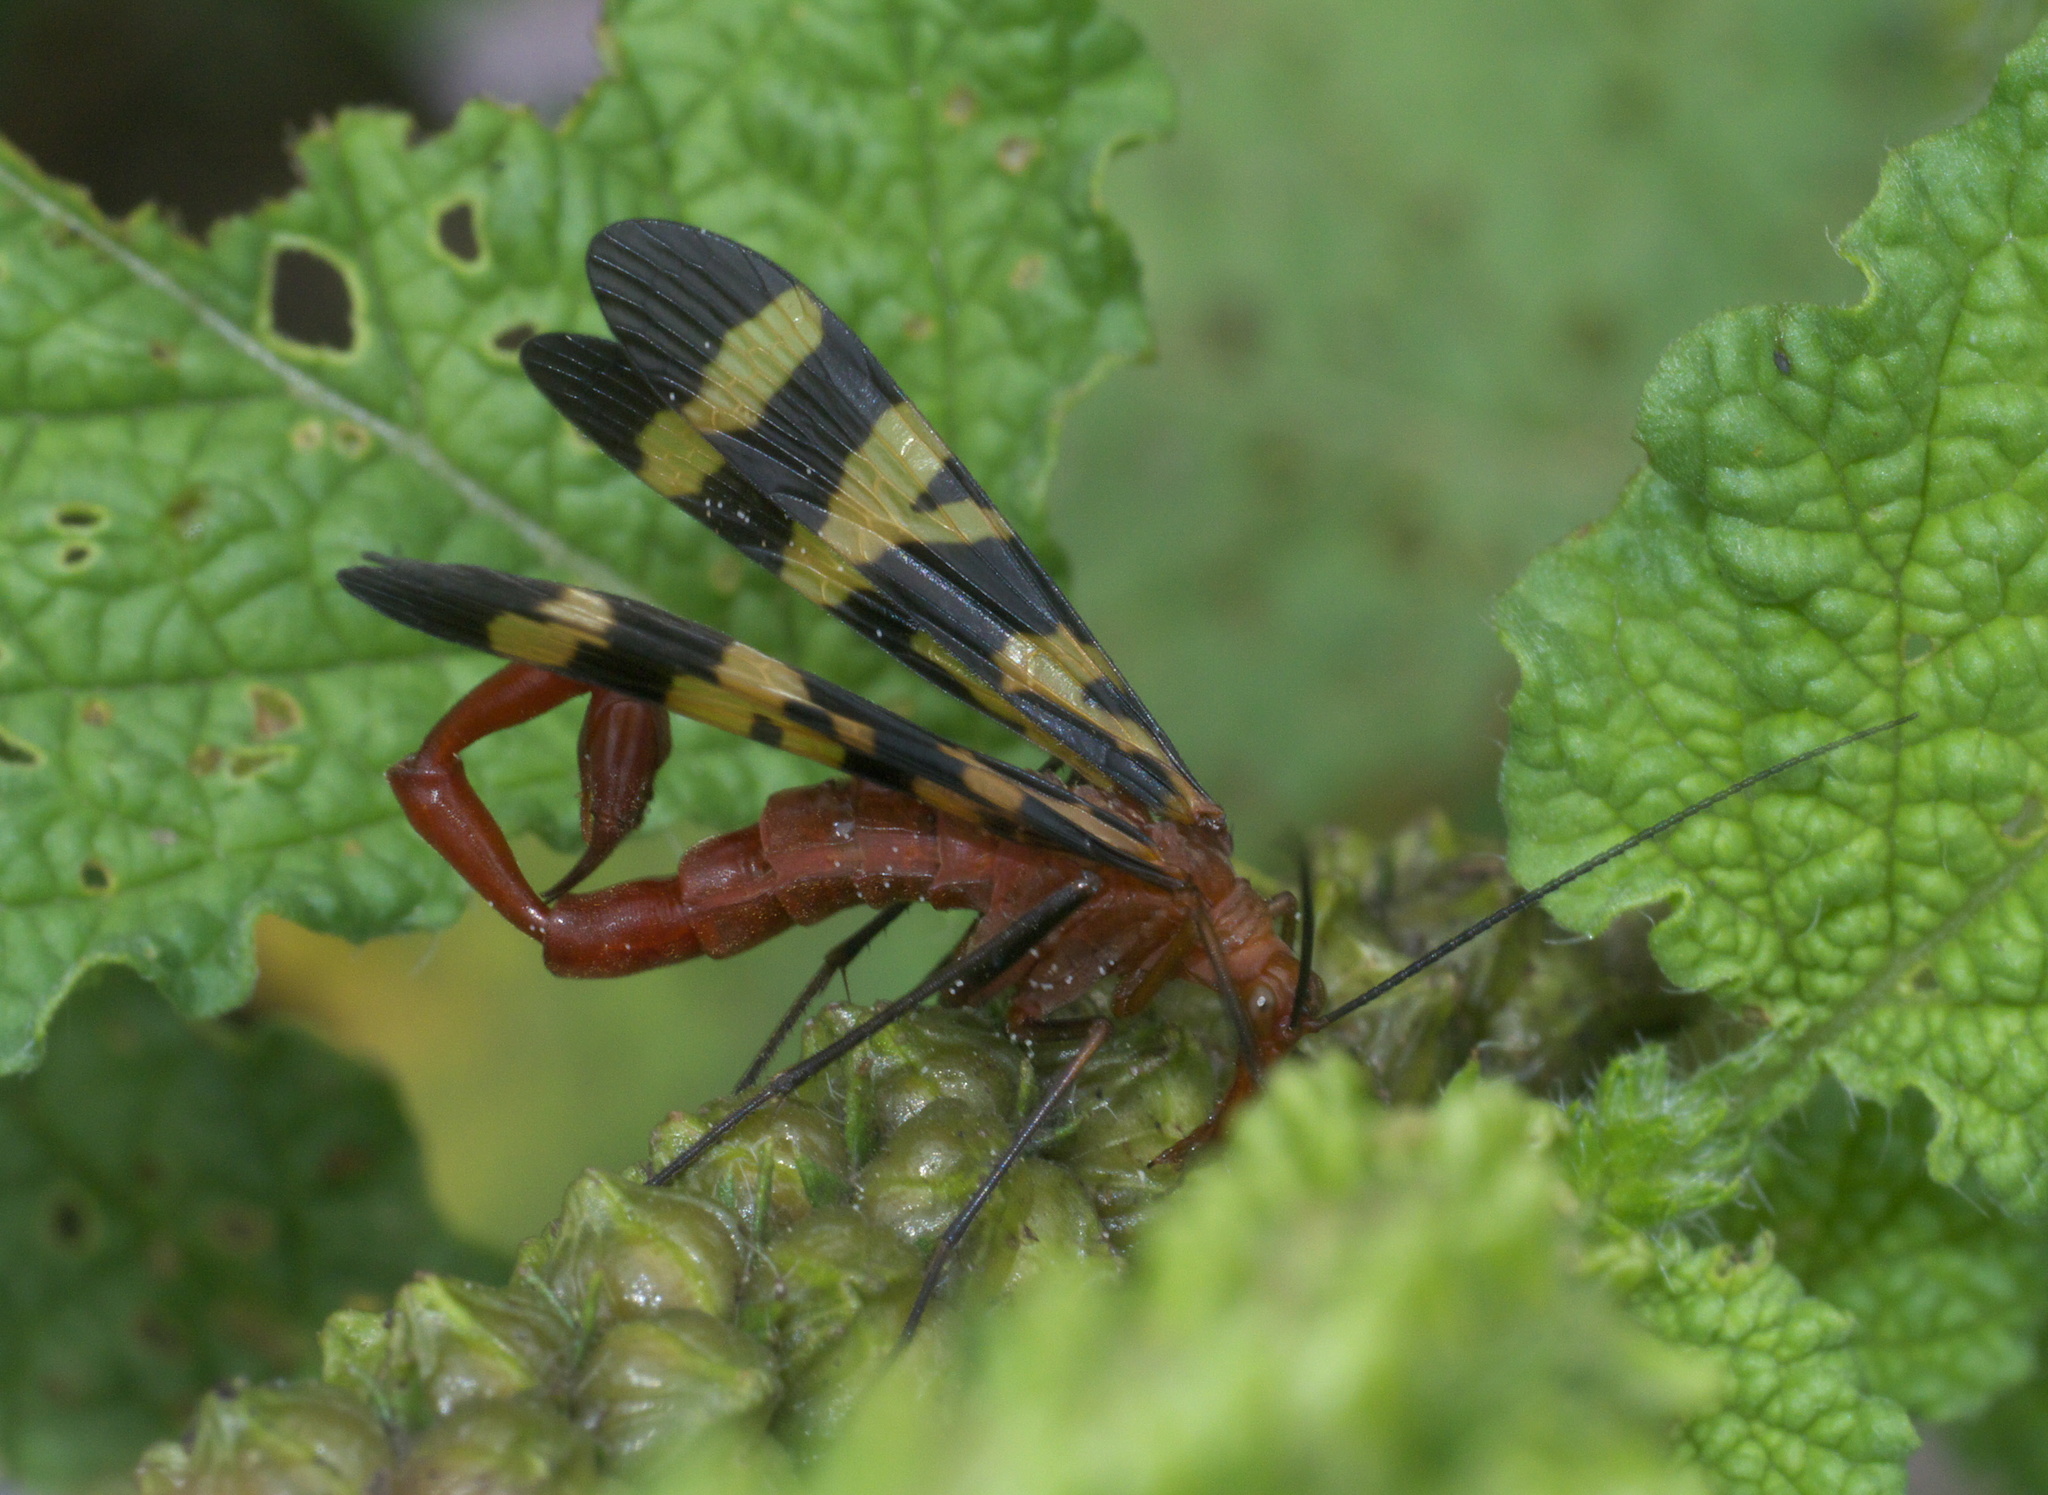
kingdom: Animalia
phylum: Arthropoda
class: Insecta
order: Mecoptera
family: Panorpidae
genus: Panorpa
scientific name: Panorpa nuptialis
